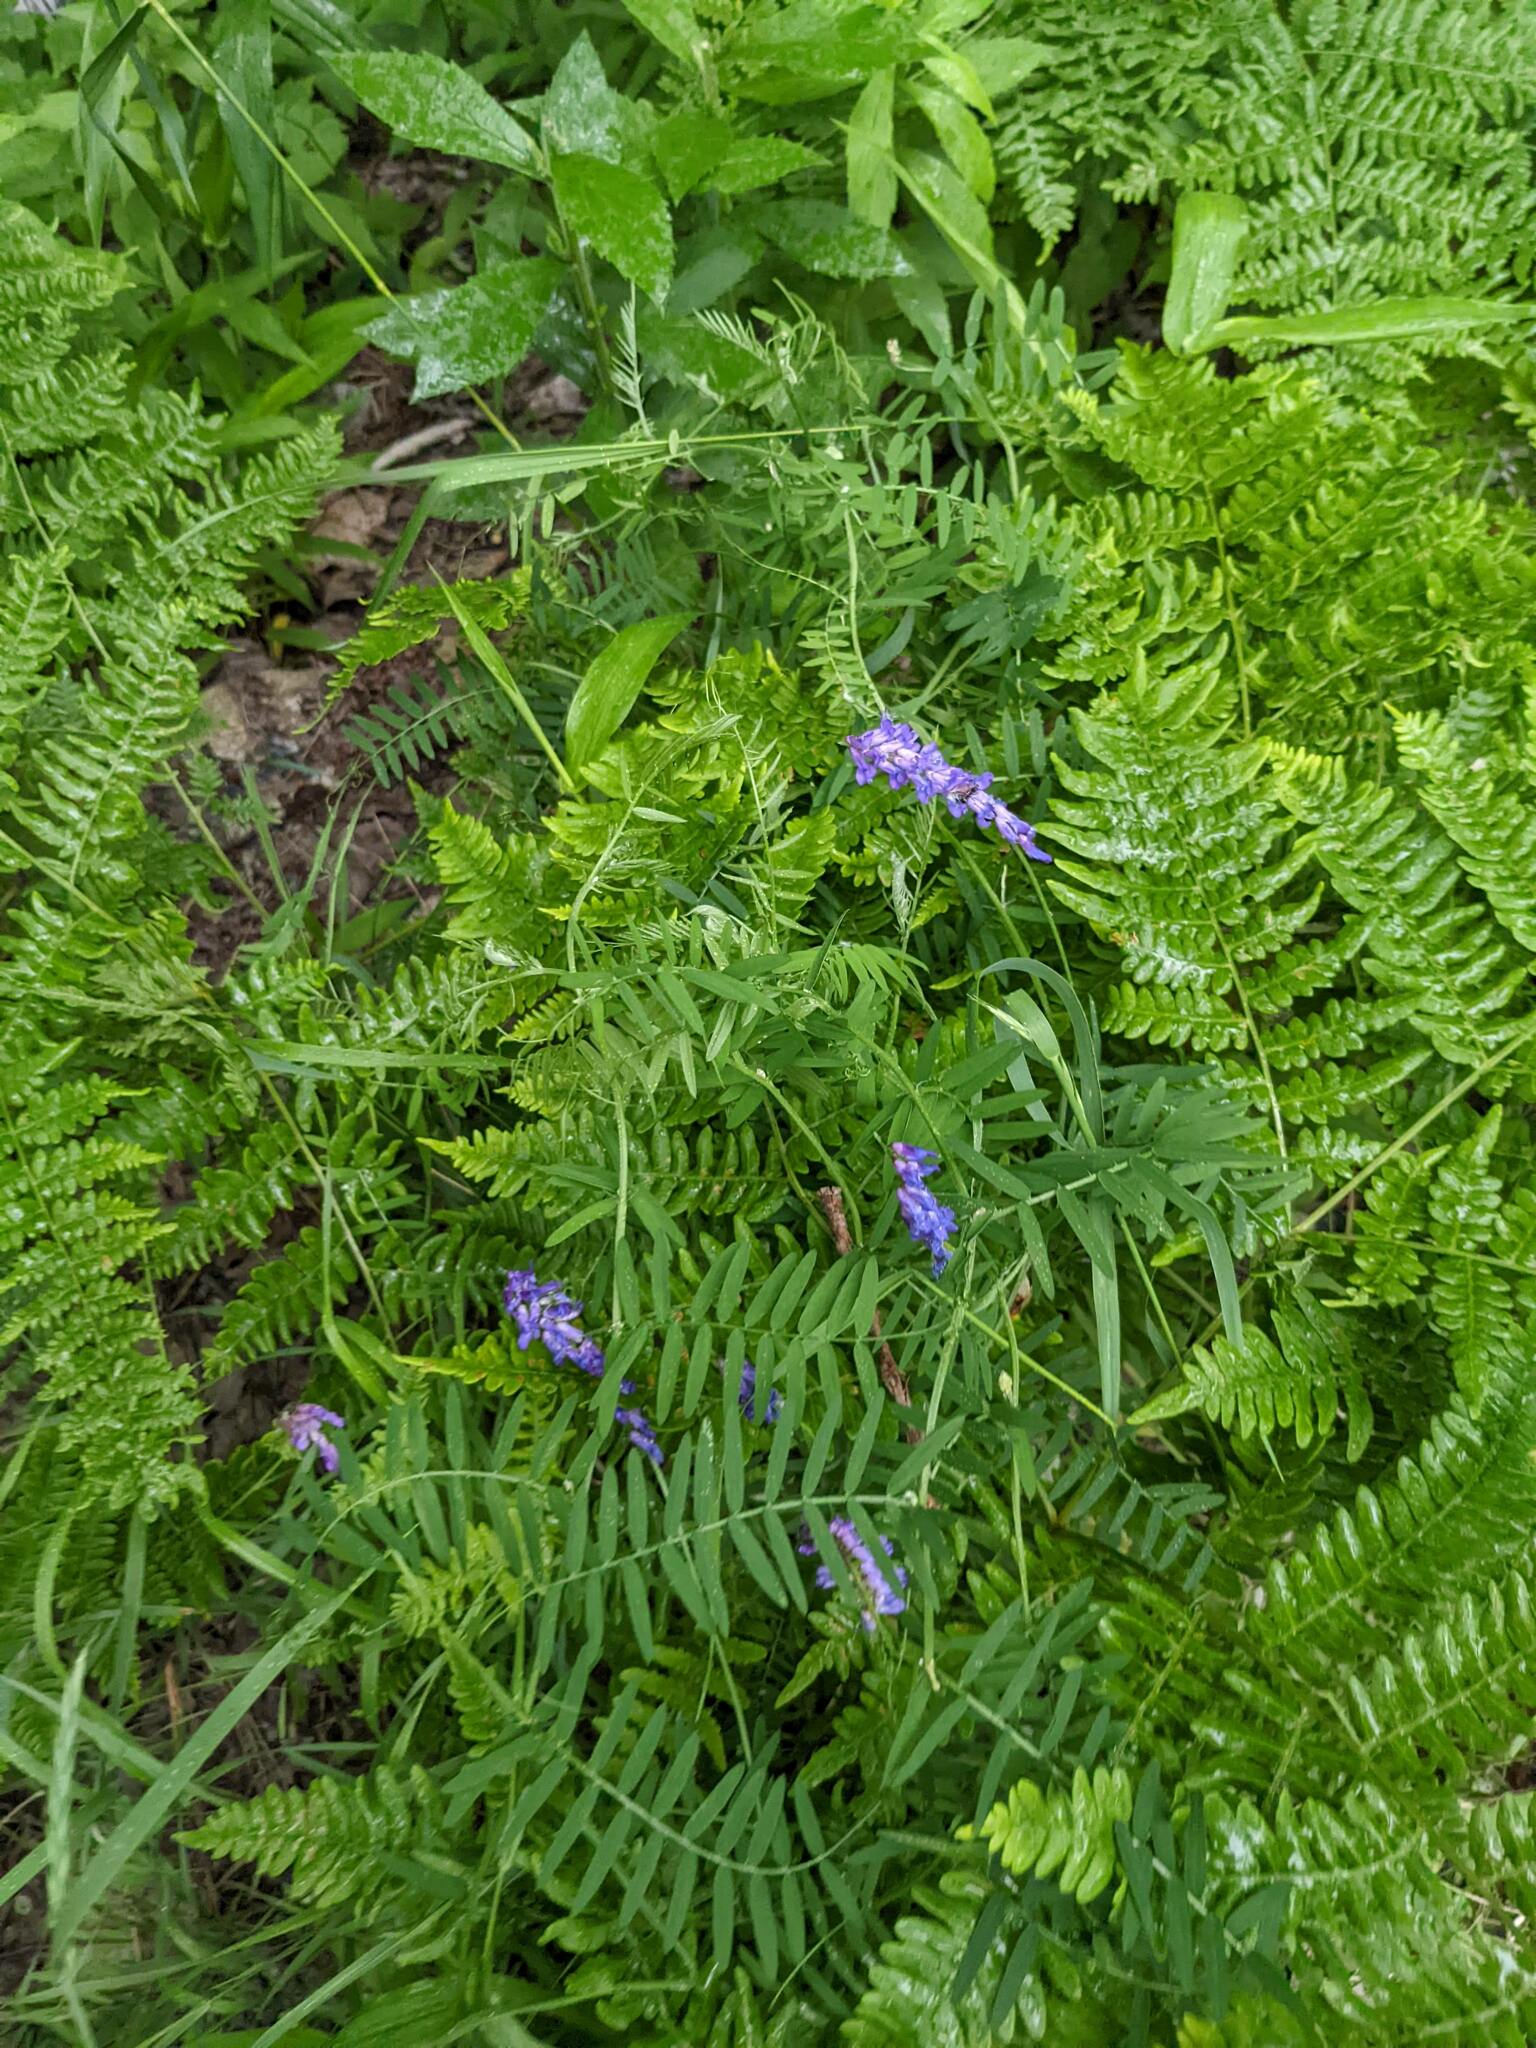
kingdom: Plantae
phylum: Tracheophyta
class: Magnoliopsida
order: Fabales
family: Fabaceae
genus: Vicia
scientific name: Vicia cracca
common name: Bird vetch
